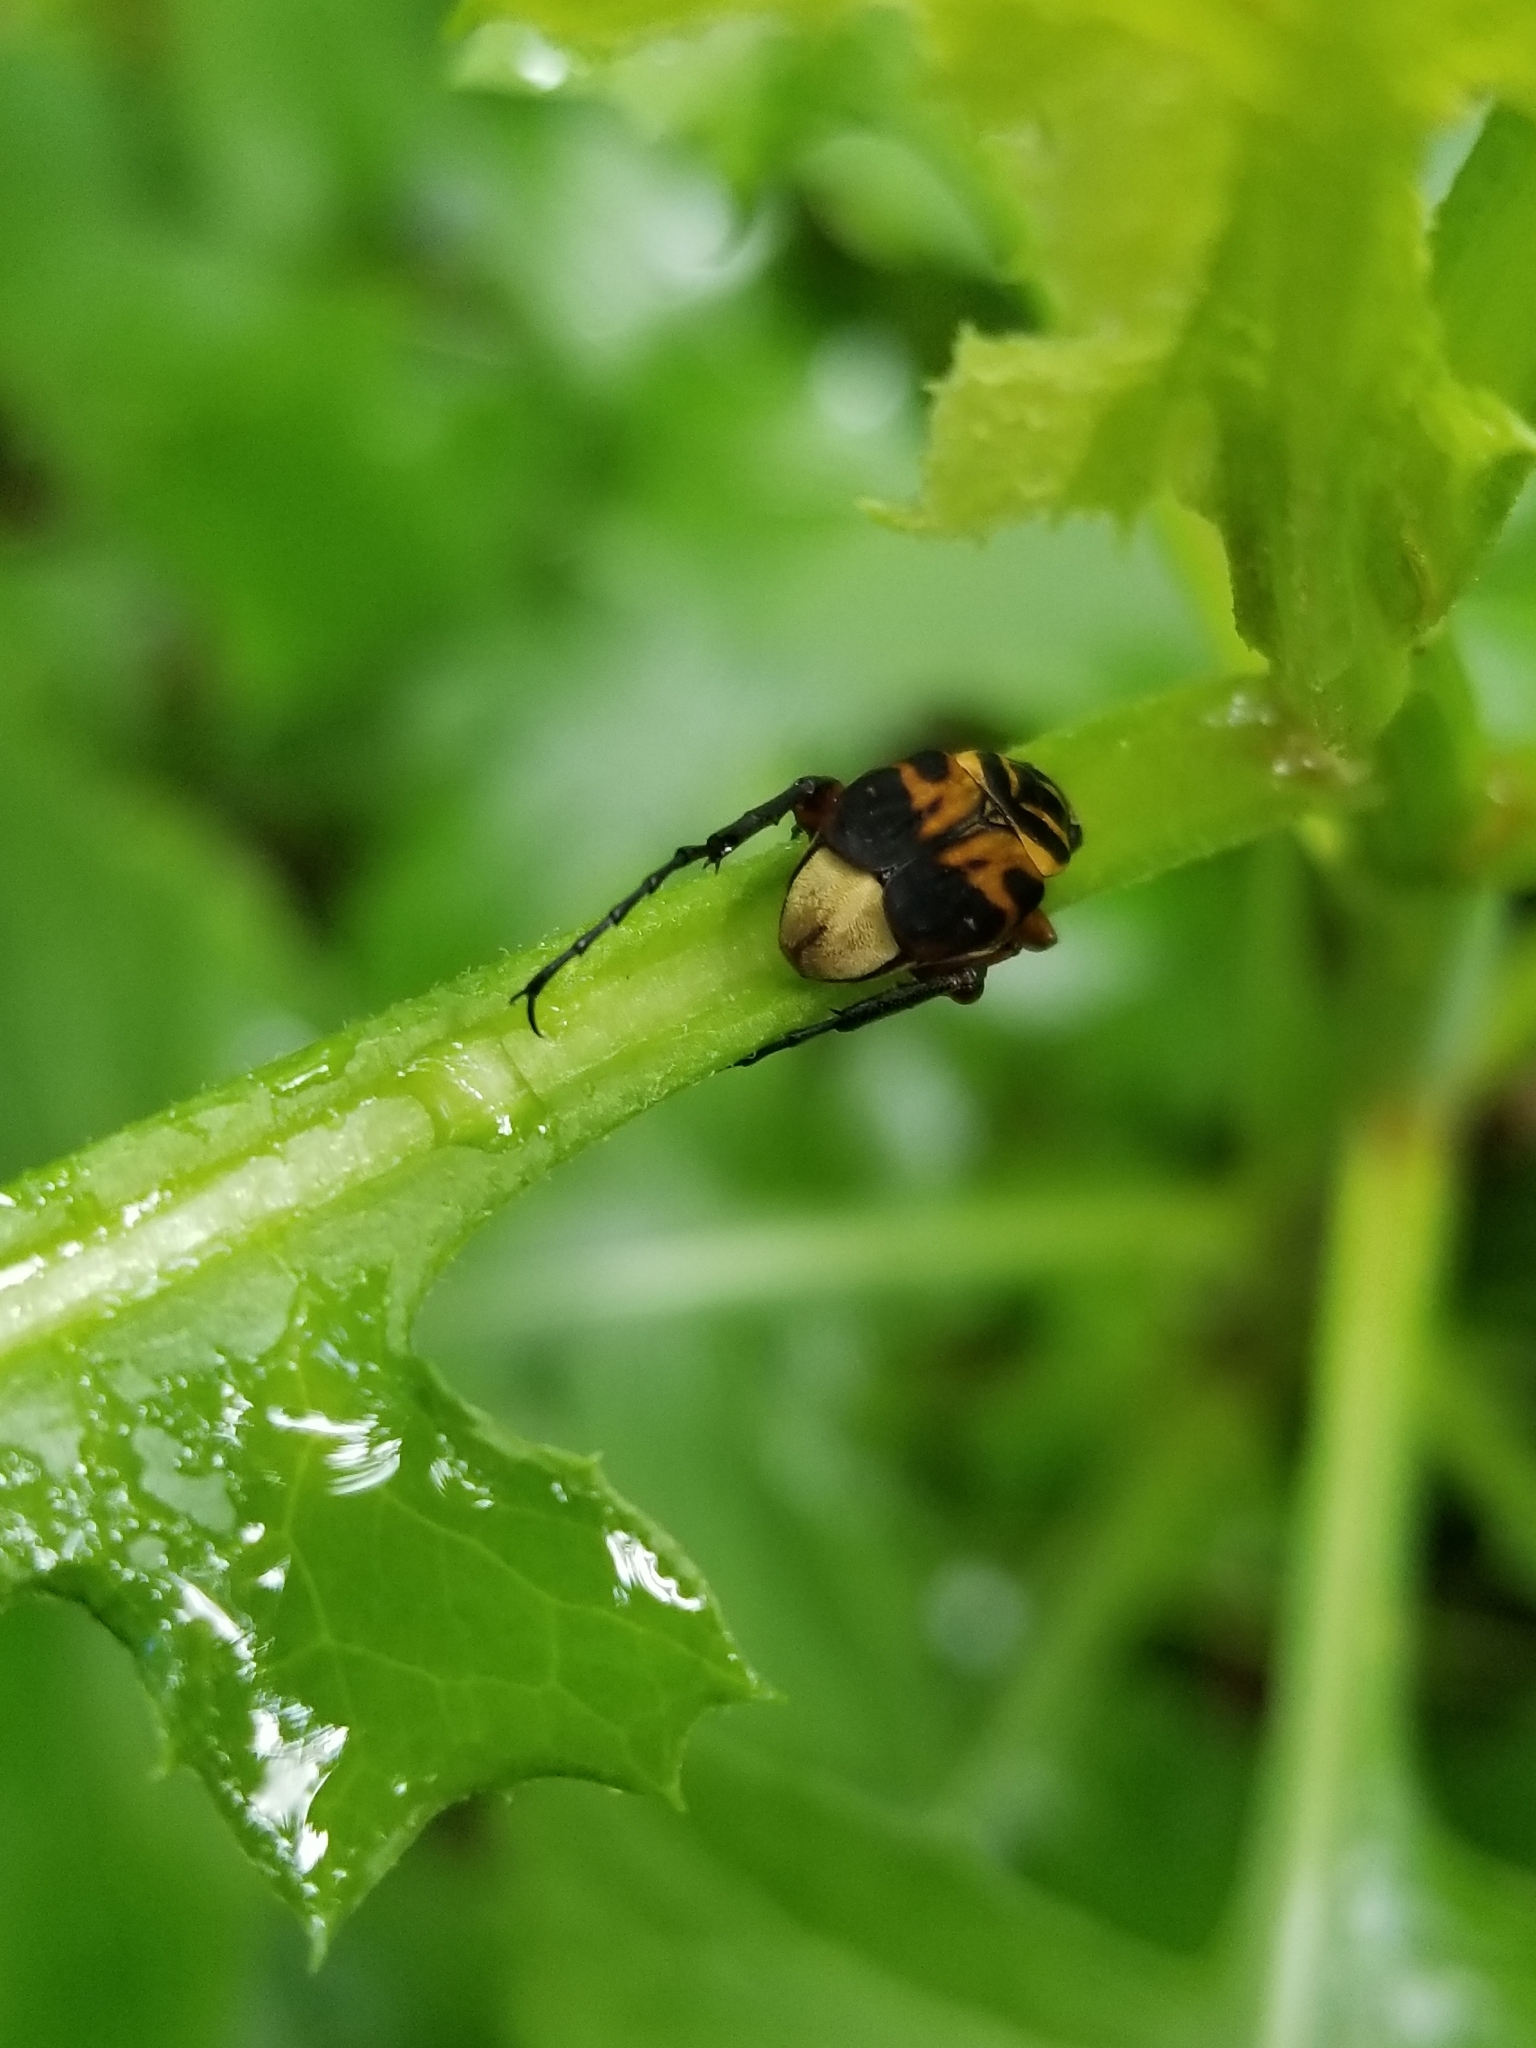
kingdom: Animalia
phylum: Arthropoda
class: Insecta
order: Coleoptera
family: Scarabaeidae
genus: Trigonopeltastes
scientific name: Trigonopeltastes delta
